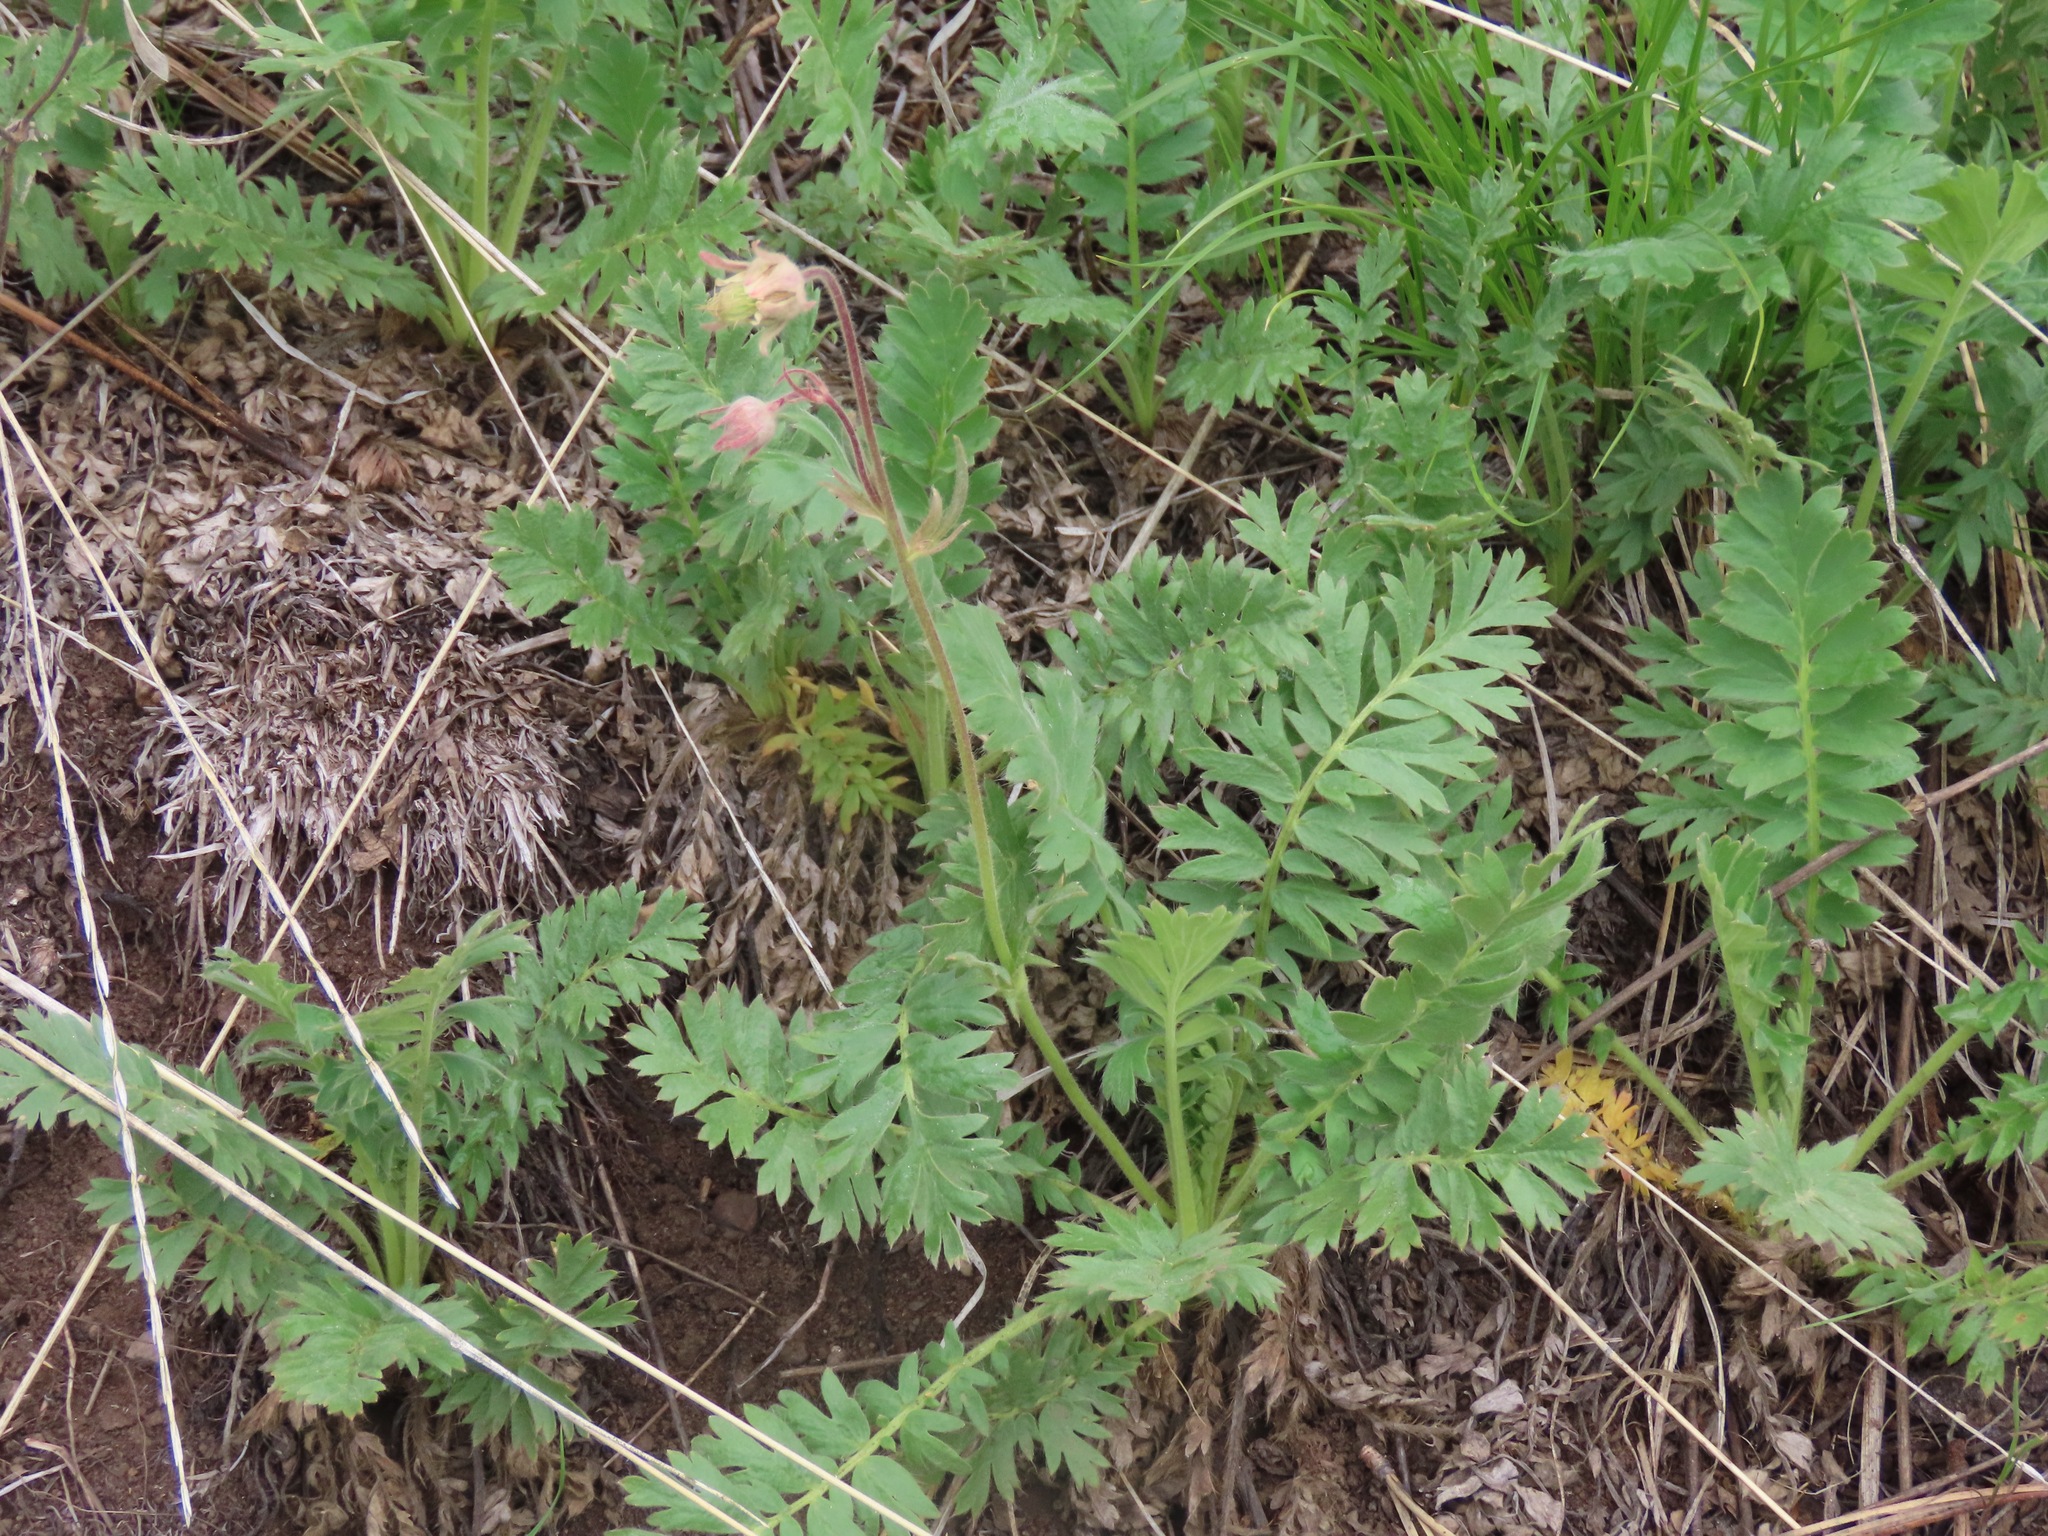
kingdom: Plantae
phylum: Tracheophyta
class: Magnoliopsida
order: Rosales
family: Rosaceae
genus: Geum
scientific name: Geum triflorum
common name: Old man's whiskers
